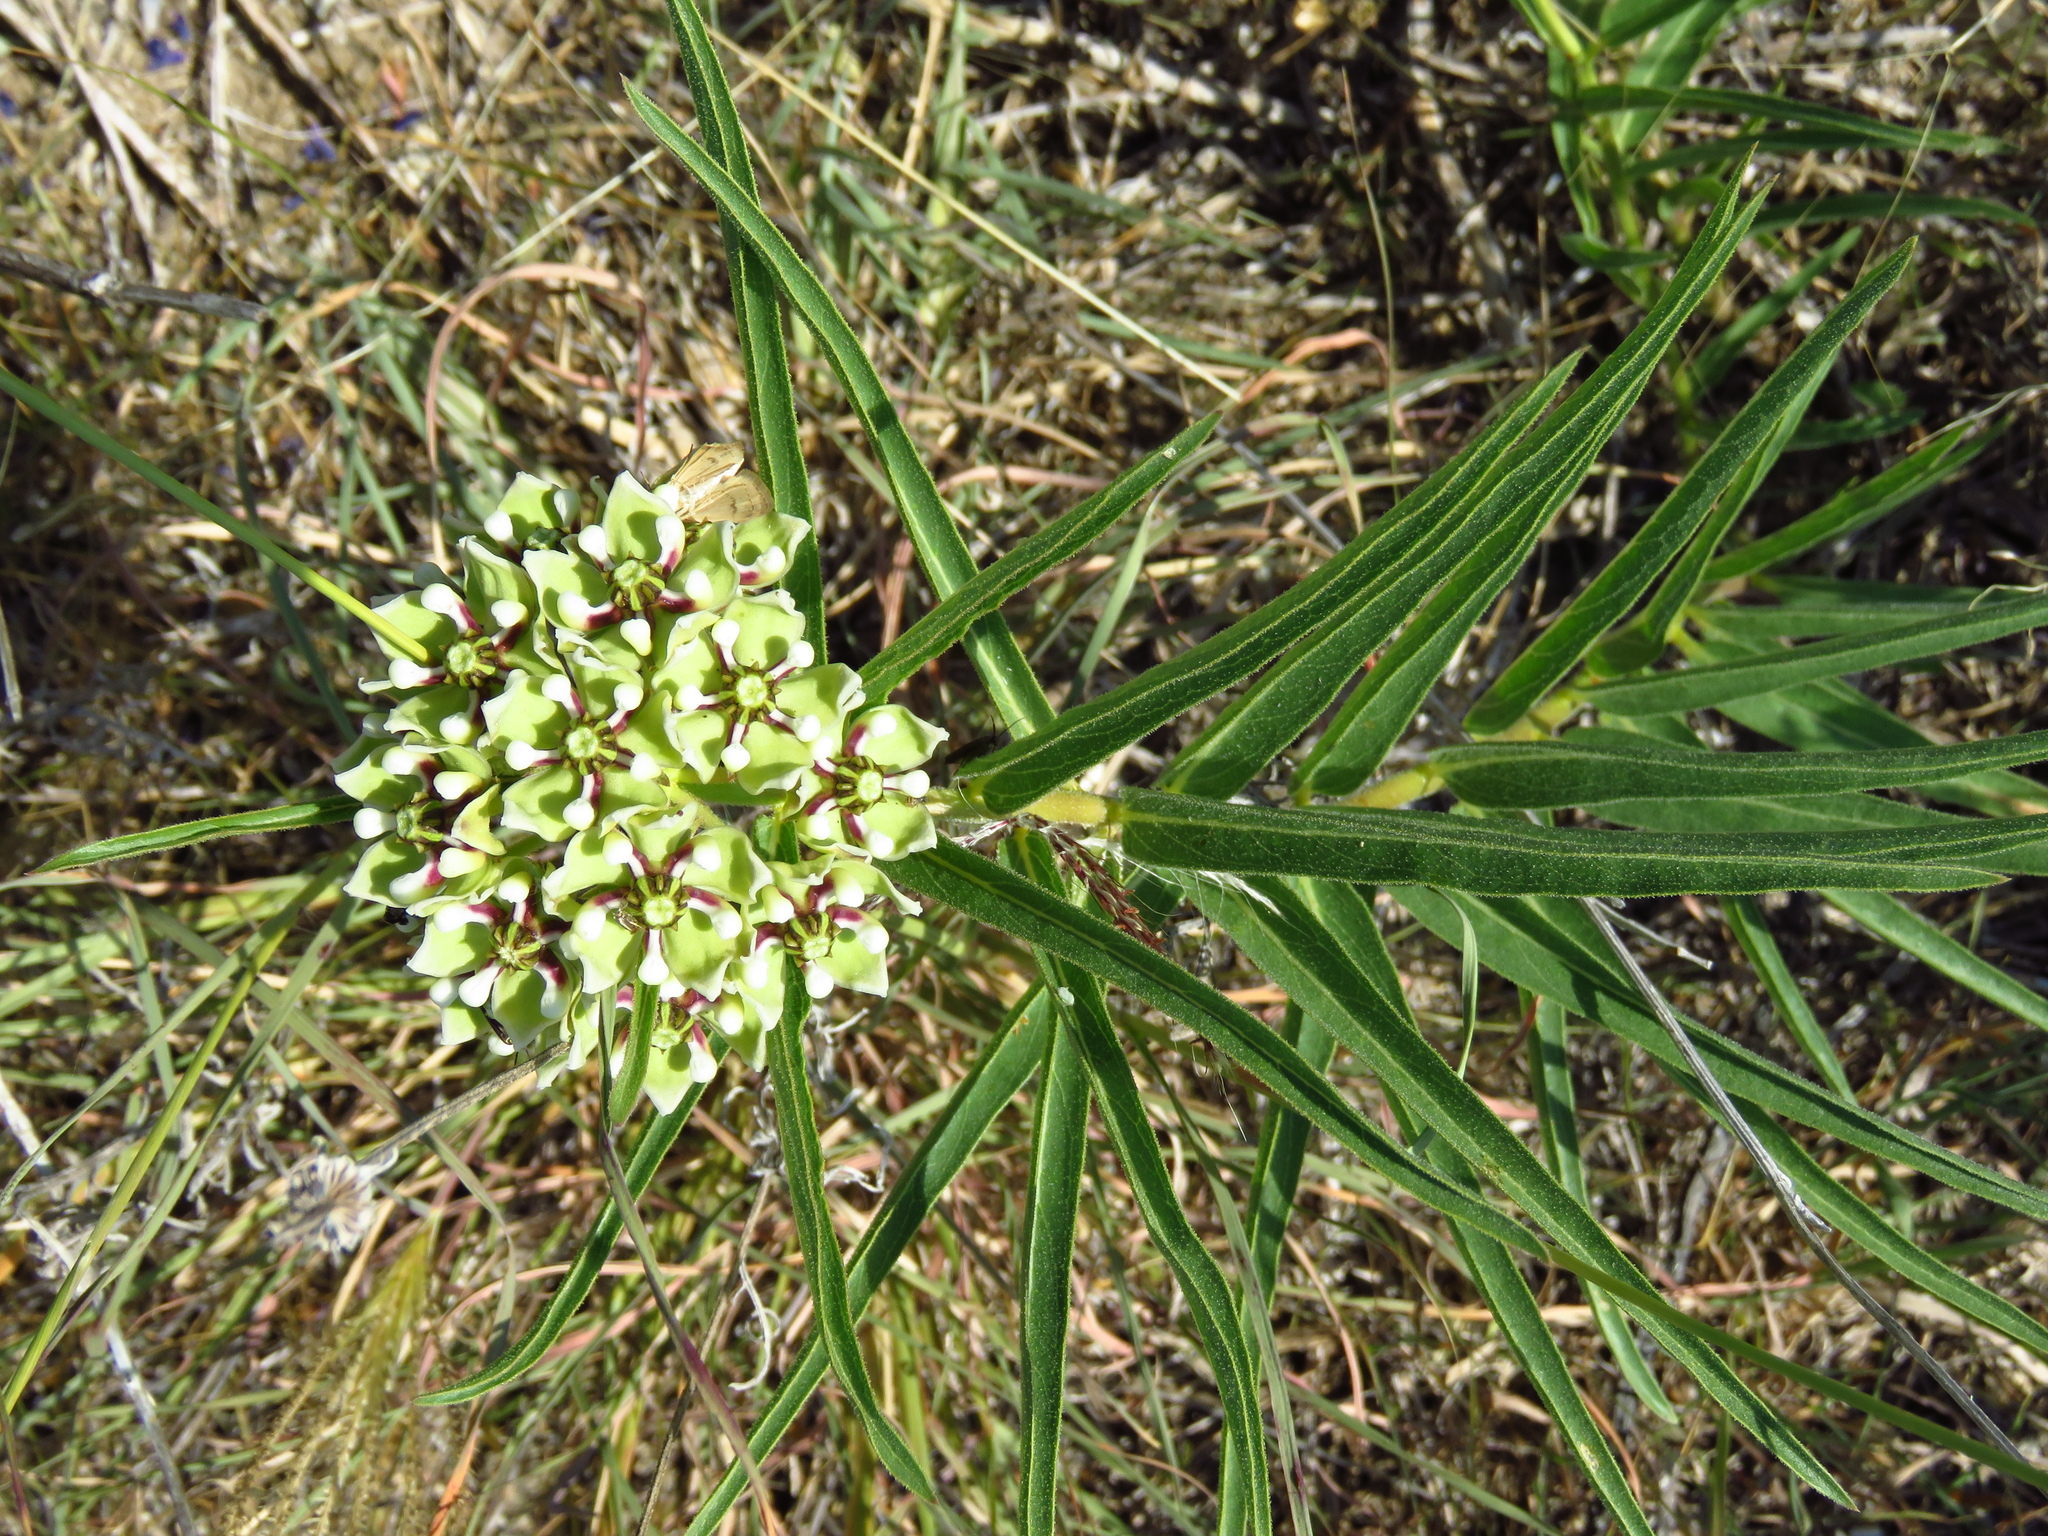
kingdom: Plantae
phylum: Tracheophyta
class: Magnoliopsida
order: Gentianales
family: Apocynaceae
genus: Asclepias
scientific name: Asclepias asperula
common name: Antelope horns
